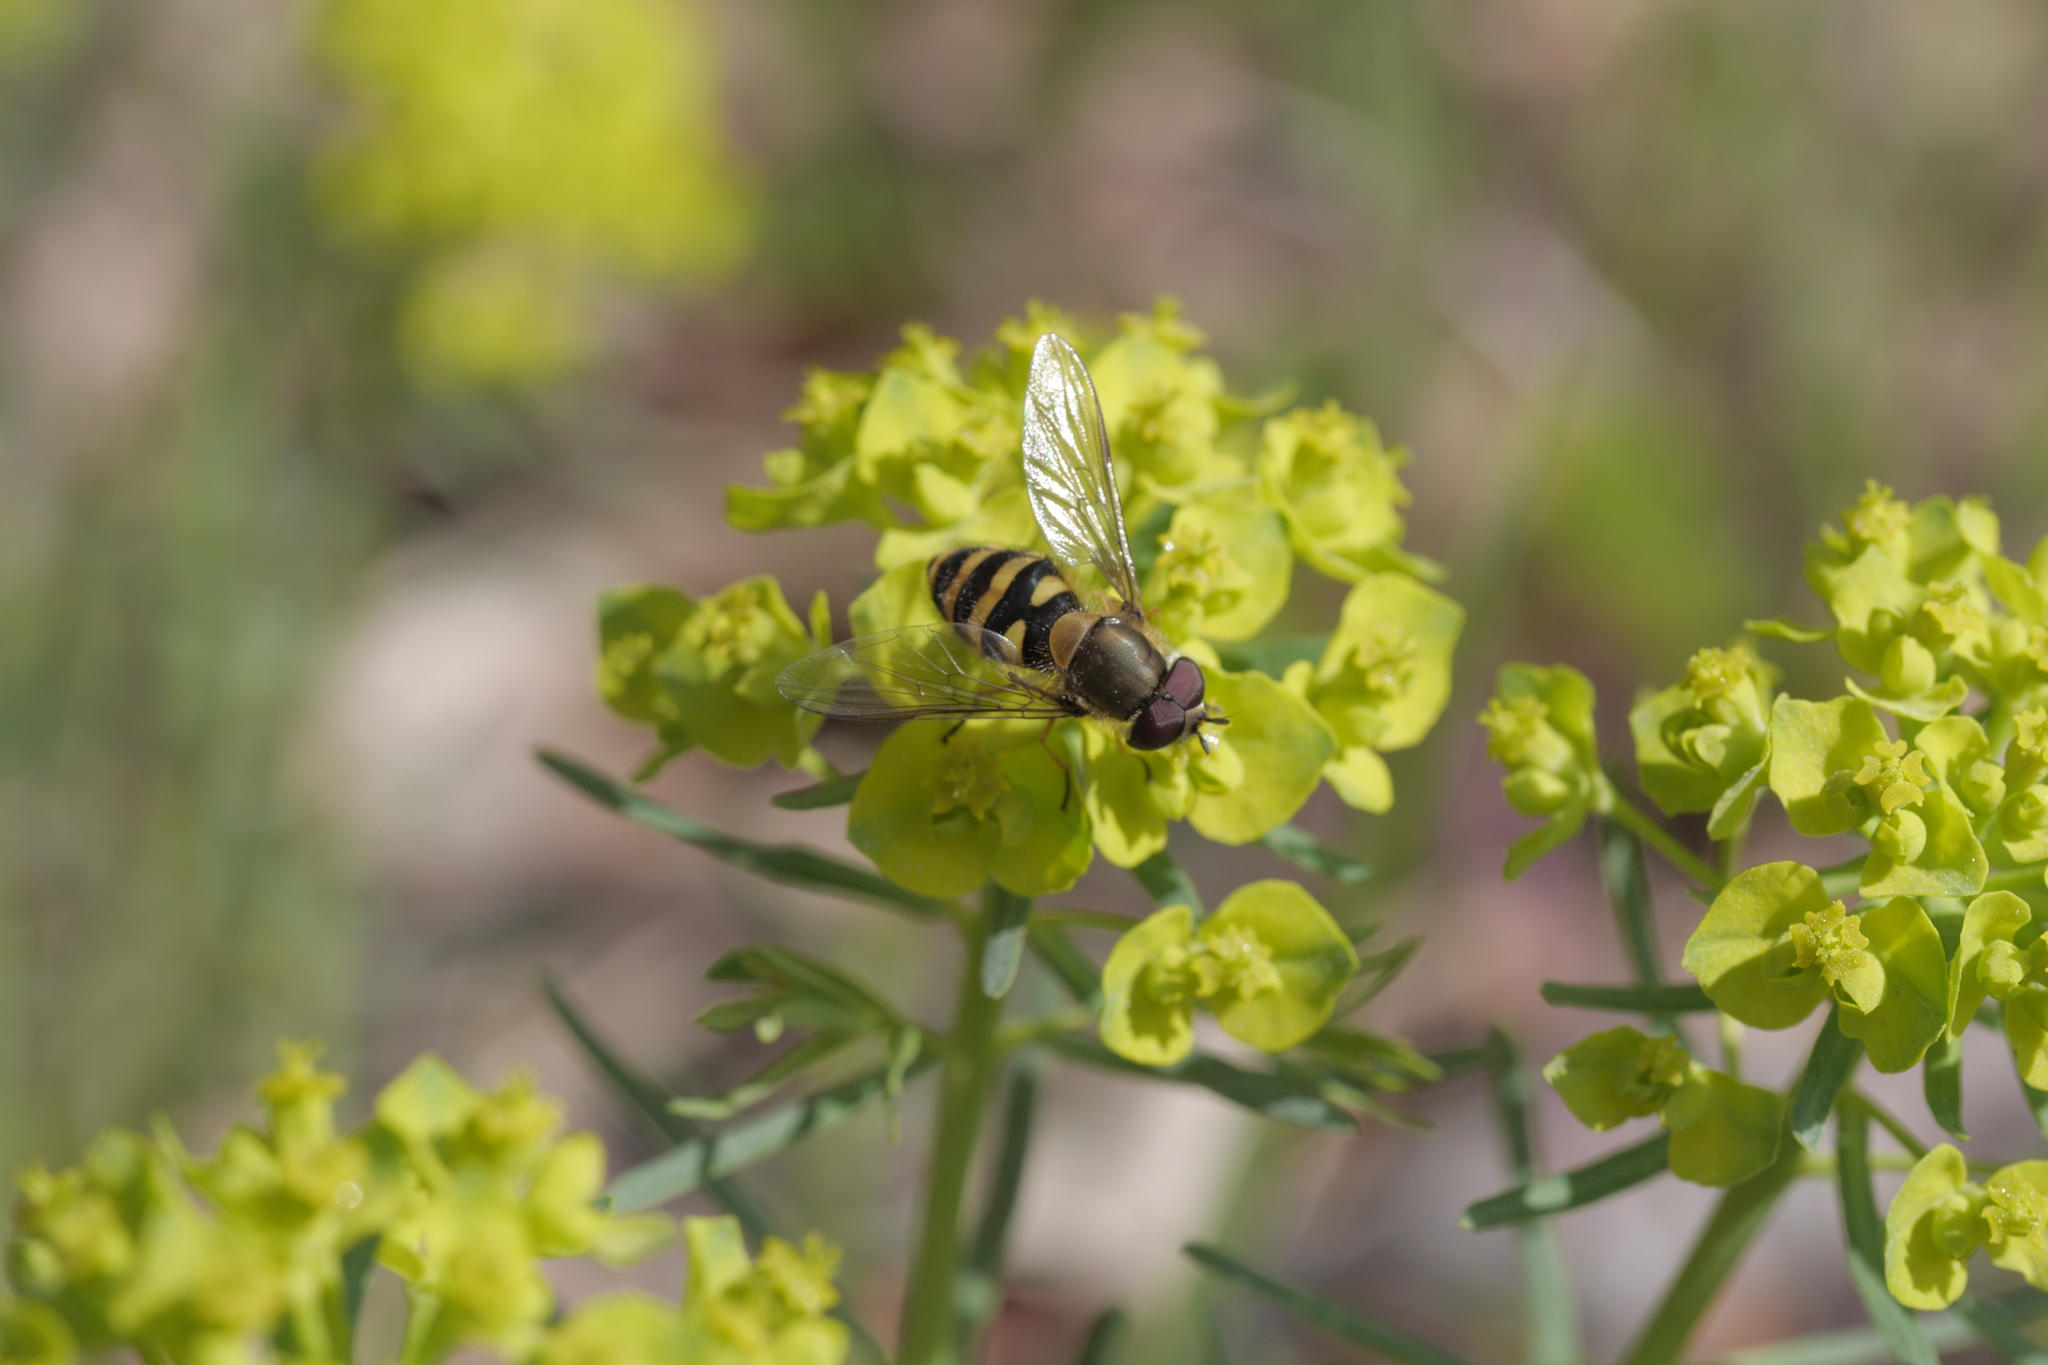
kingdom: Animalia
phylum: Arthropoda
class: Insecta
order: Diptera
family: Syrphidae
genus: Syrphus
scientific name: Syrphus
